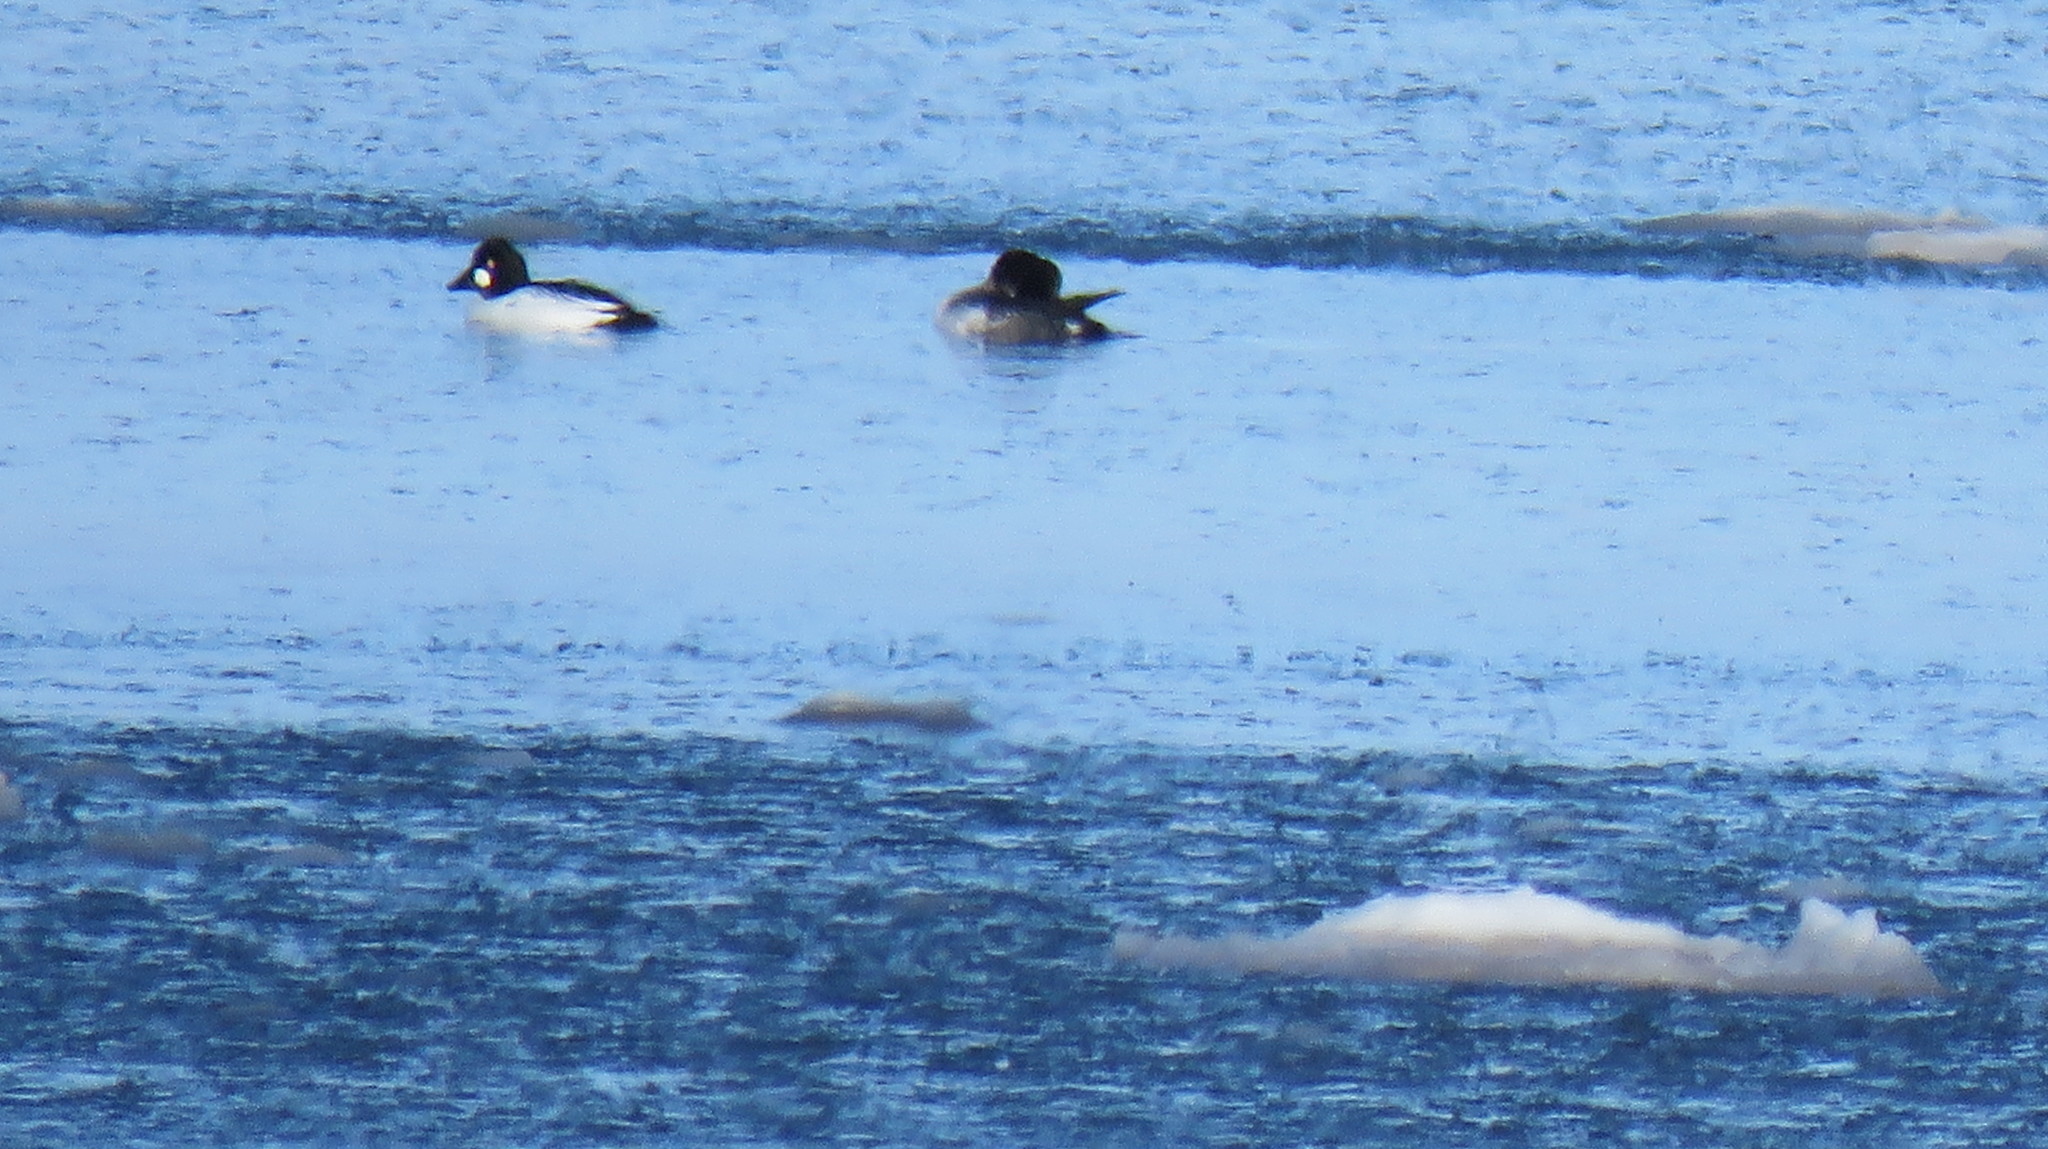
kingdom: Animalia
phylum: Chordata
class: Aves
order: Anseriformes
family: Anatidae
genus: Bucephala
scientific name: Bucephala clangula
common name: Common goldeneye
